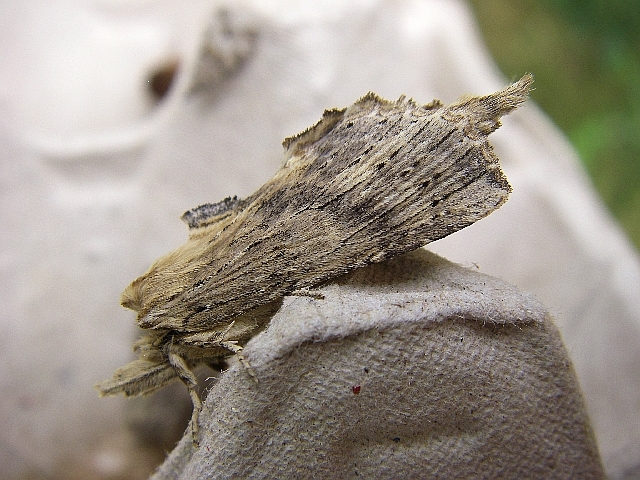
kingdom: Animalia
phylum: Arthropoda
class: Insecta
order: Lepidoptera
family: Notodontidae
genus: Pterostoma
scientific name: Pterostoma palpina
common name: Pale prominent
